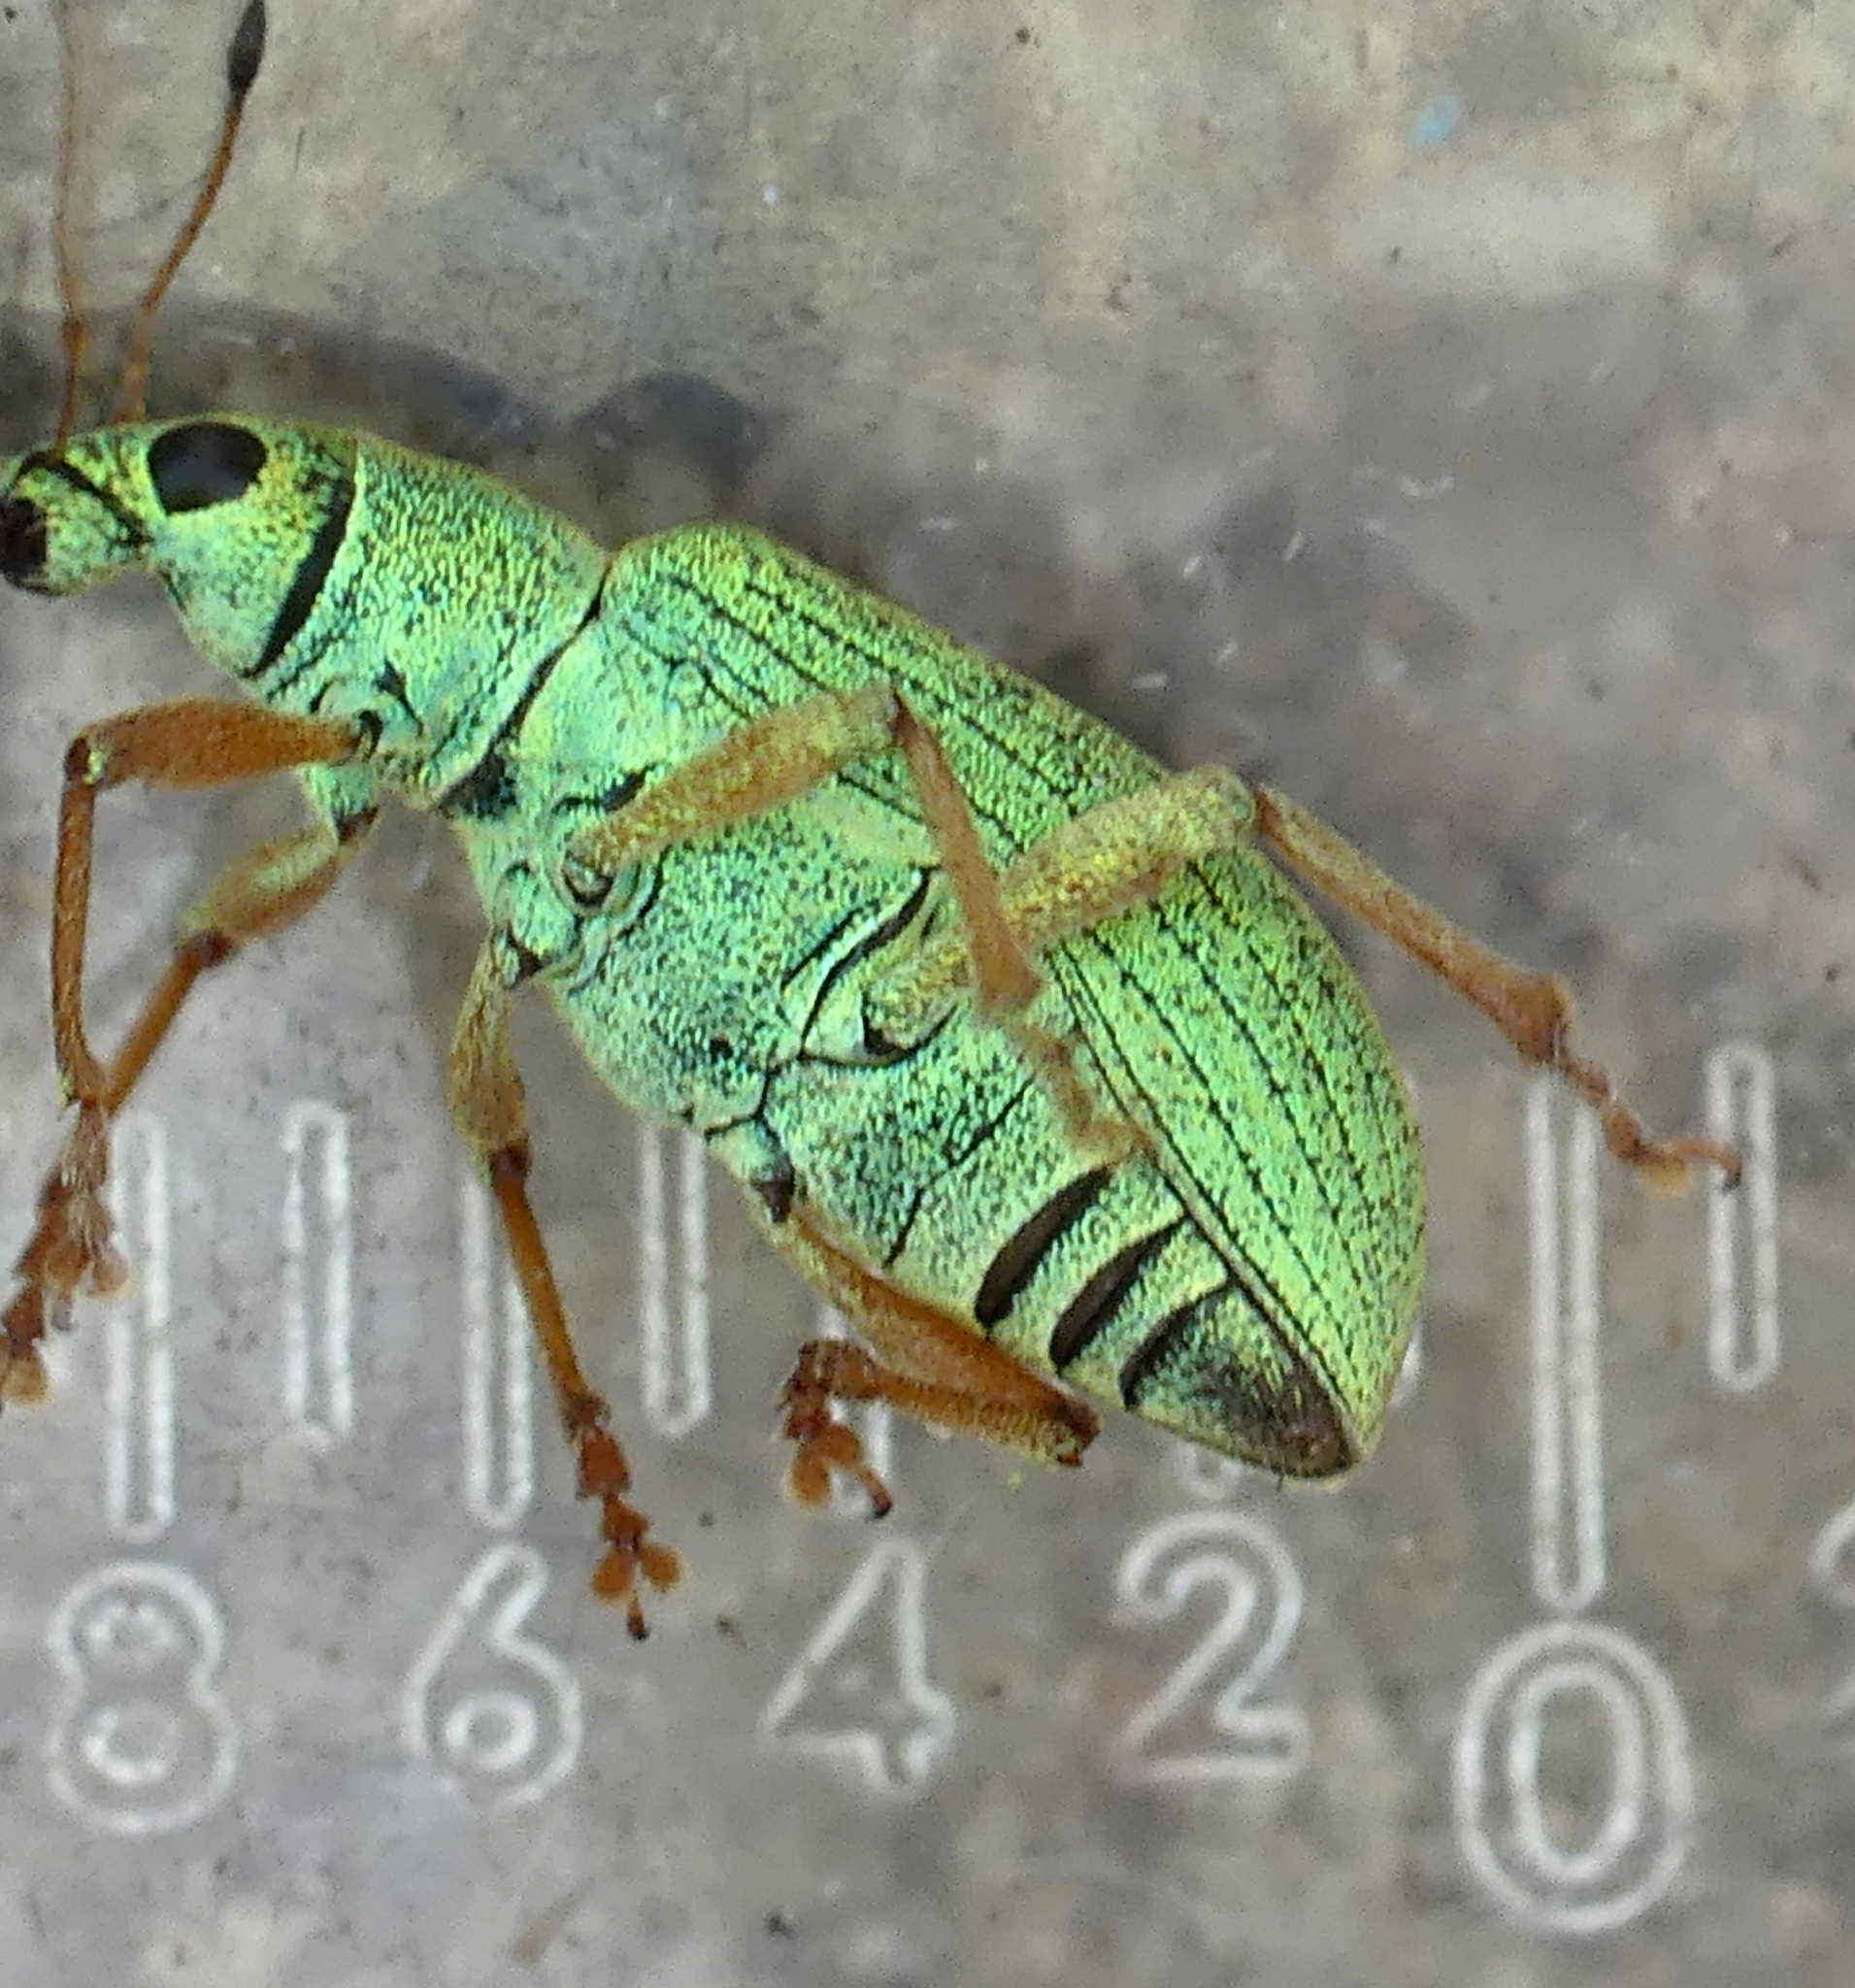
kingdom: Animalia
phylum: Arthropoda
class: Insecta
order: Coleoptera
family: Curculionidae
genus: Polydrusus
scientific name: Polydrusus formosus
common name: Weevil
